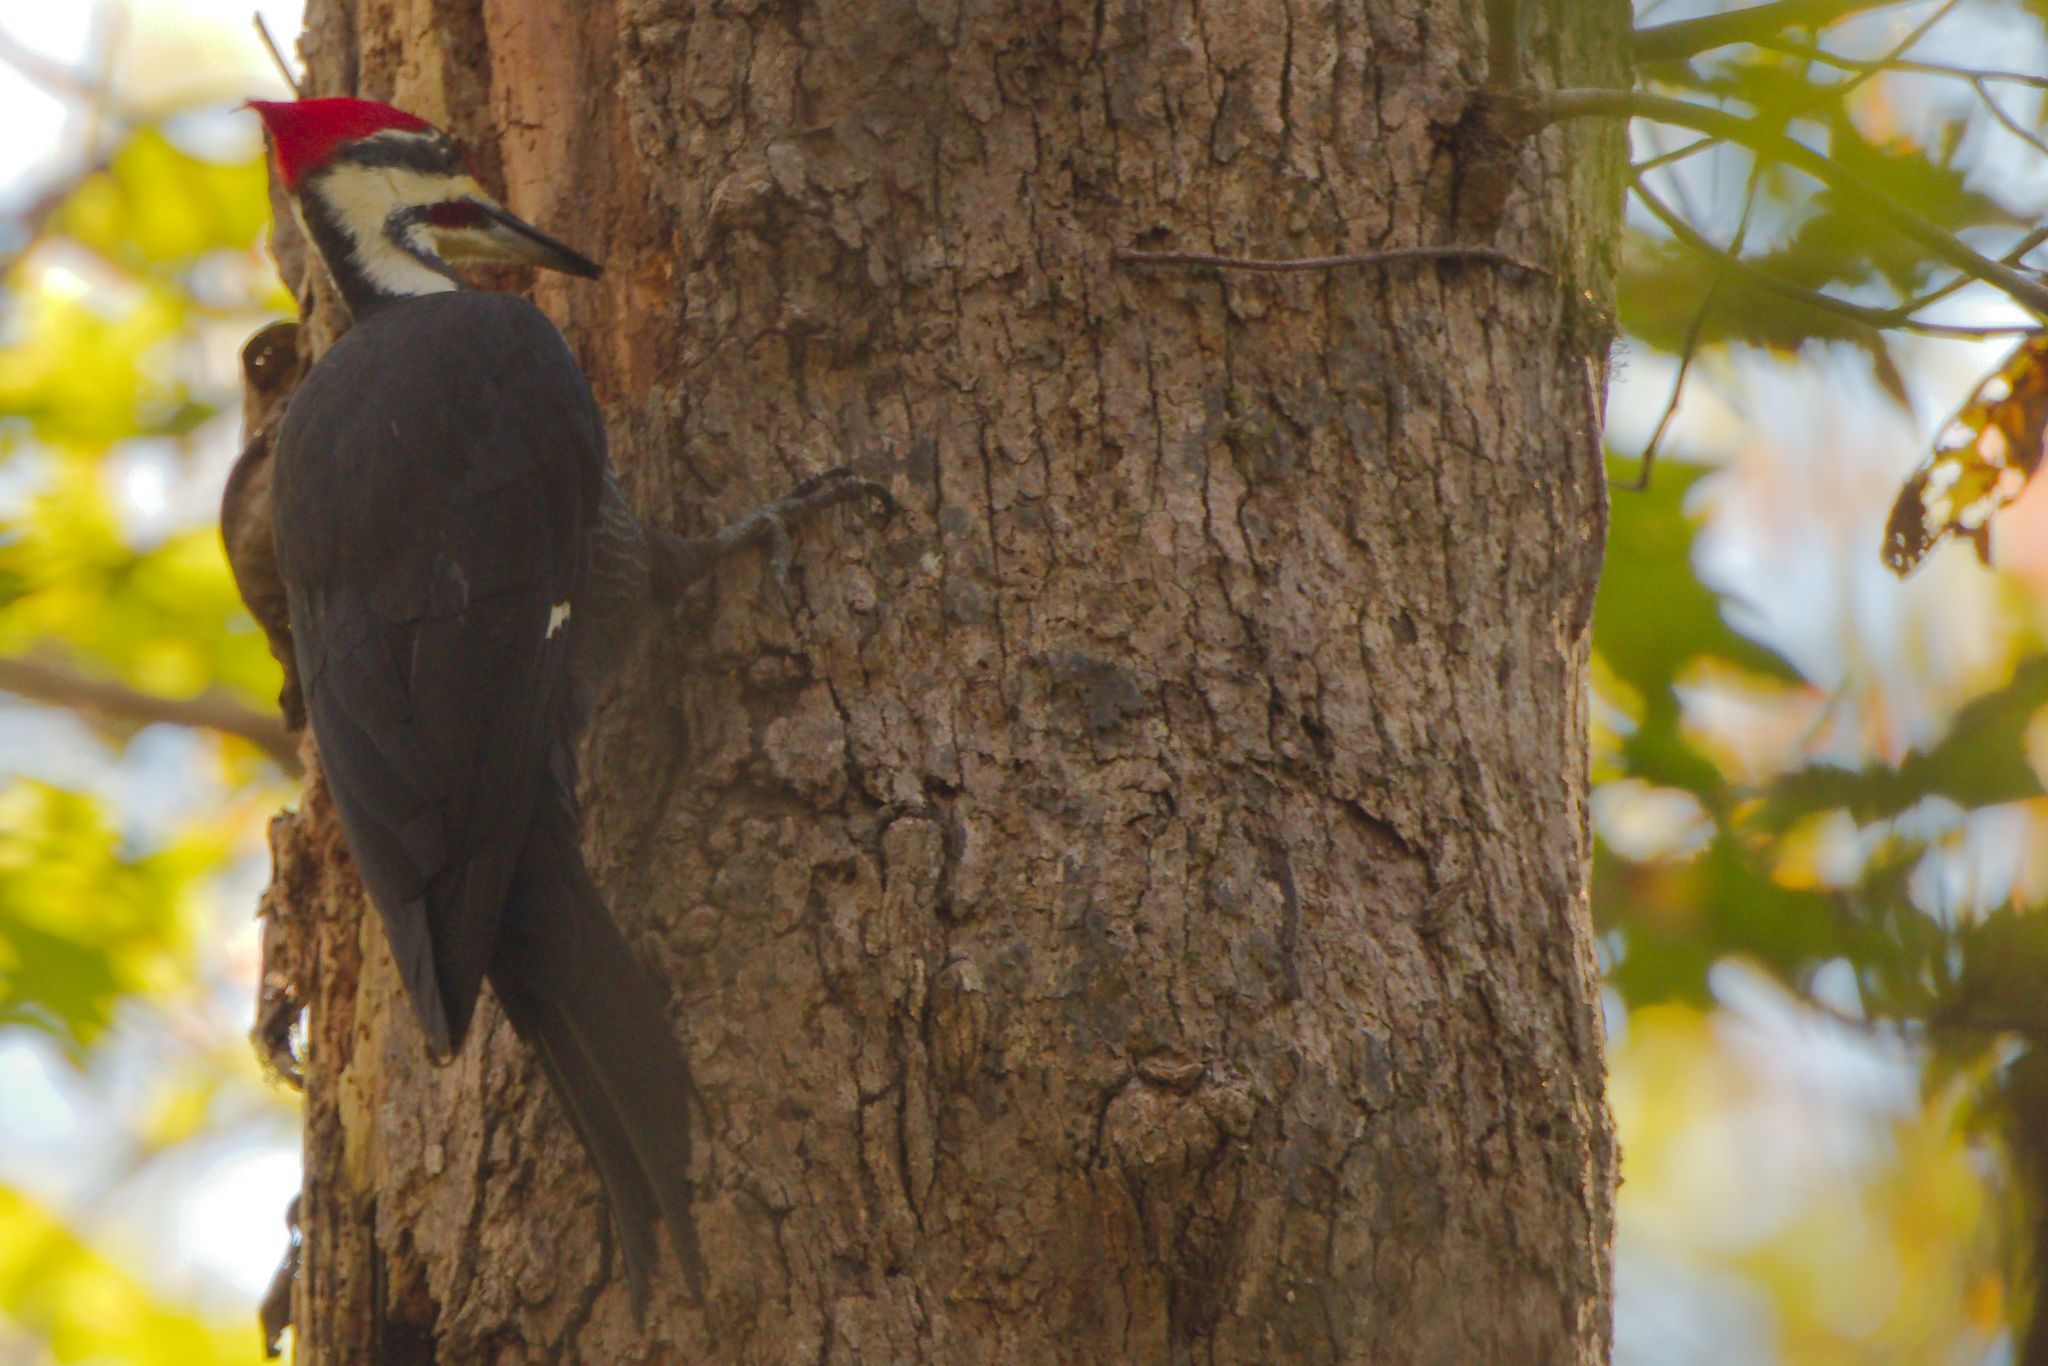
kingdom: Animalia
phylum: Chordata
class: Aves
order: Piciformes
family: Picidae
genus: Dryocopus
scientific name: Dryocopus pileatus
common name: Pileated woodpecker
